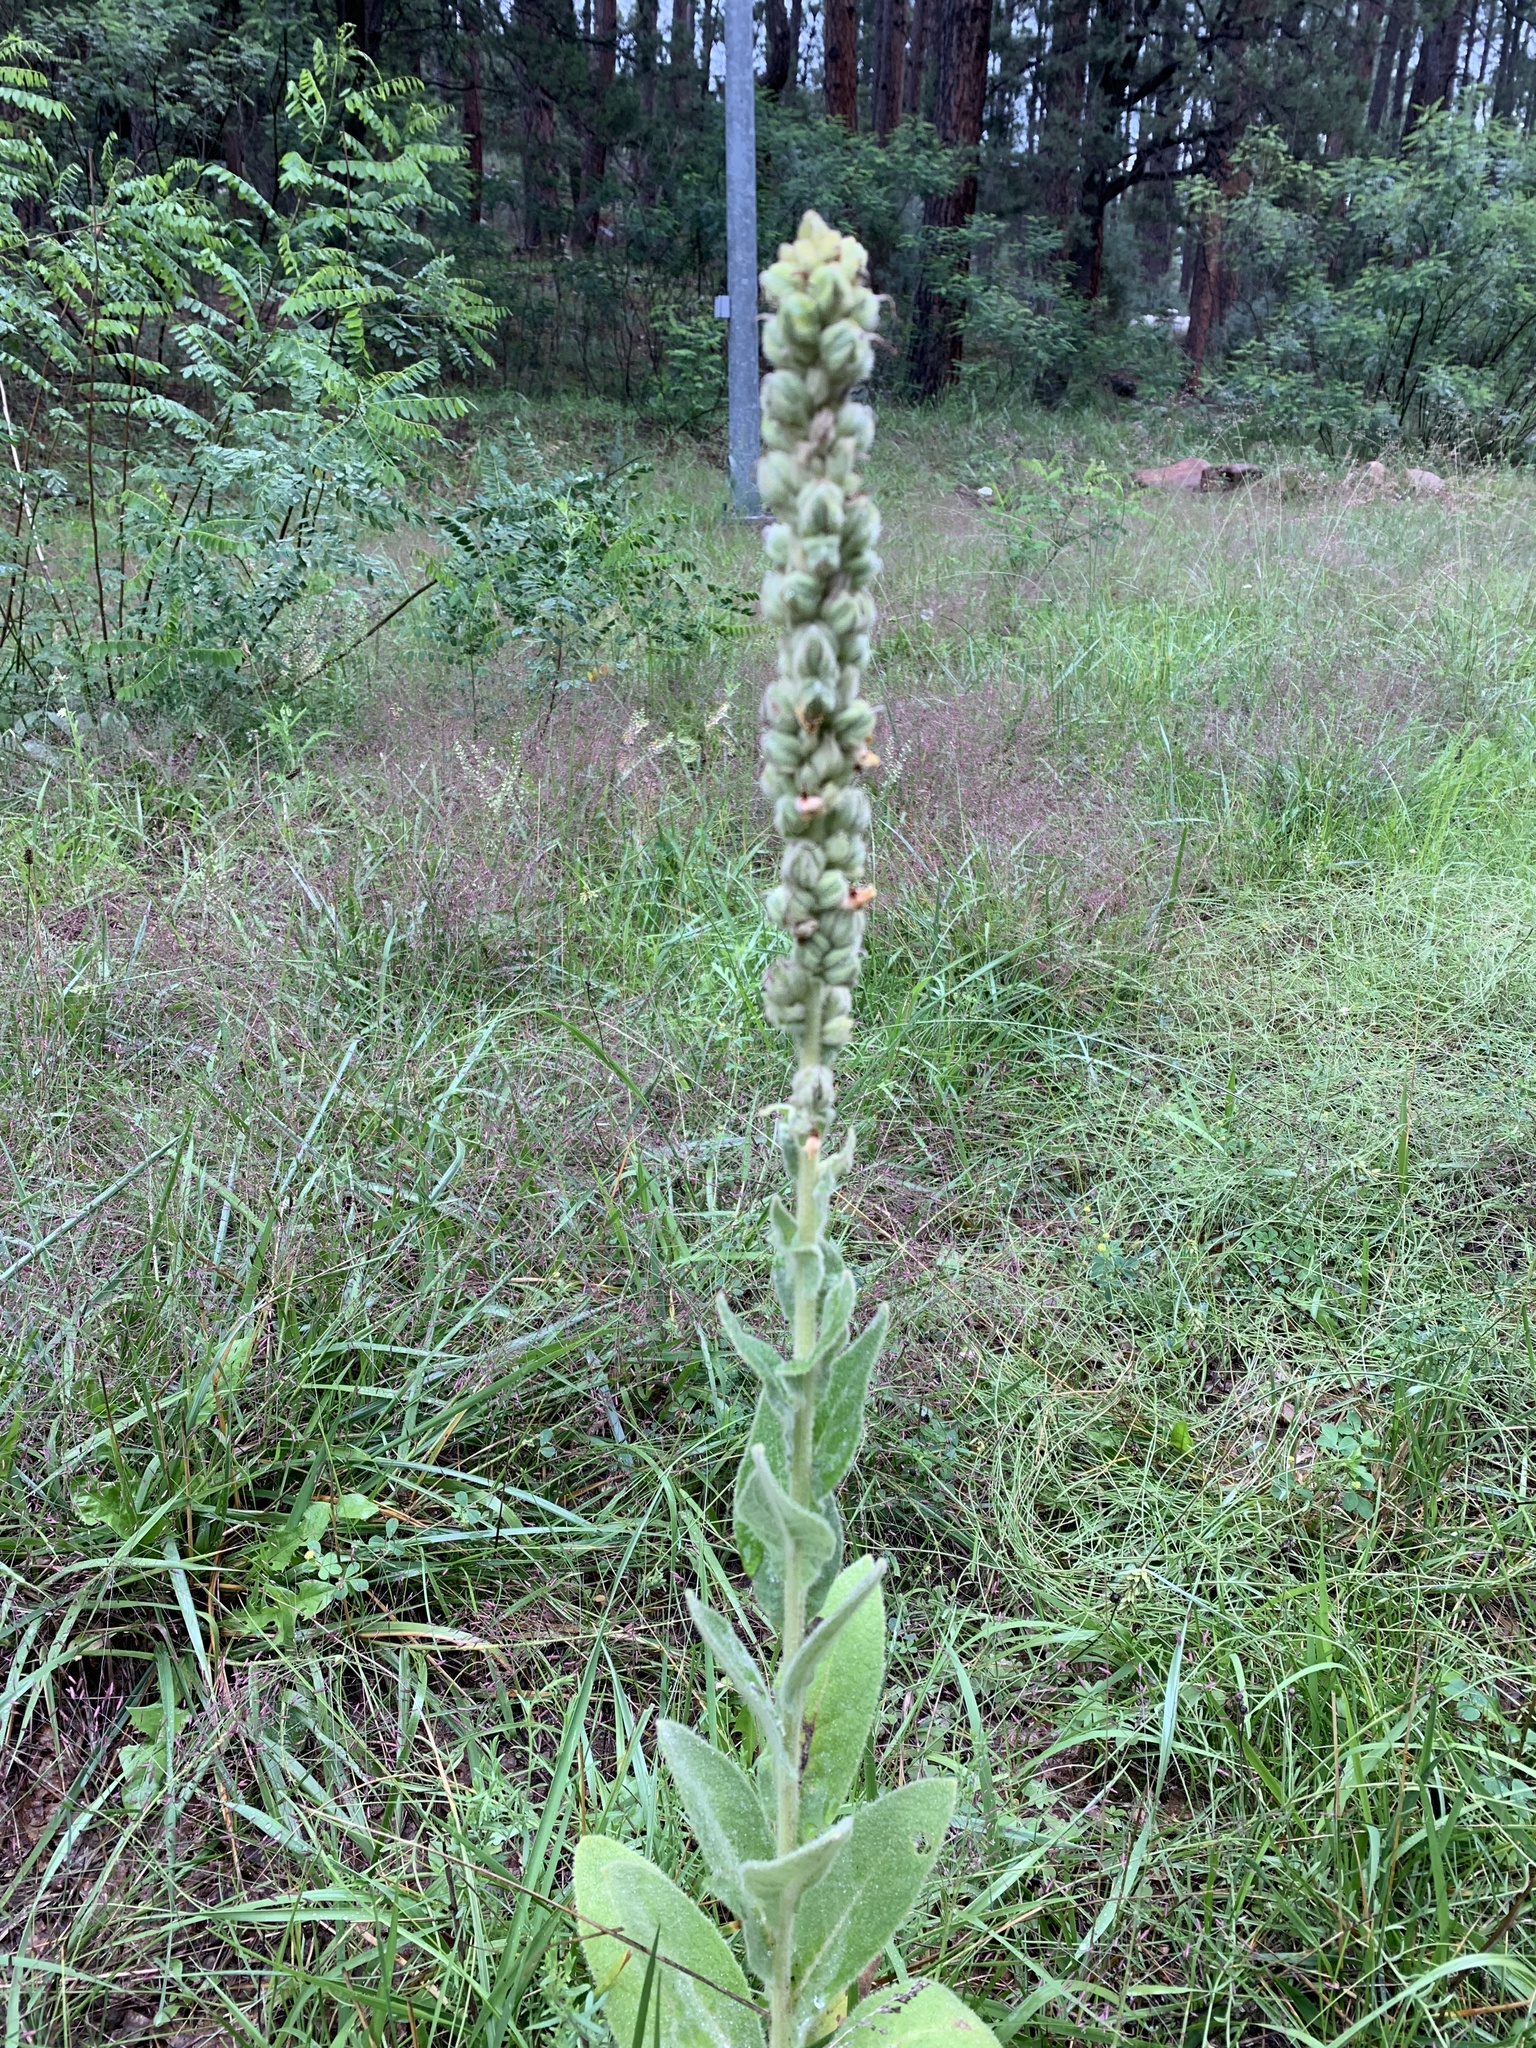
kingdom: Plantae
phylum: Tracheophyta
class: Magnoliopsida
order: Lamiales
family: Scrophulariaceae
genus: Verbascum
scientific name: Verbascum thapsus
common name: Common mullein
